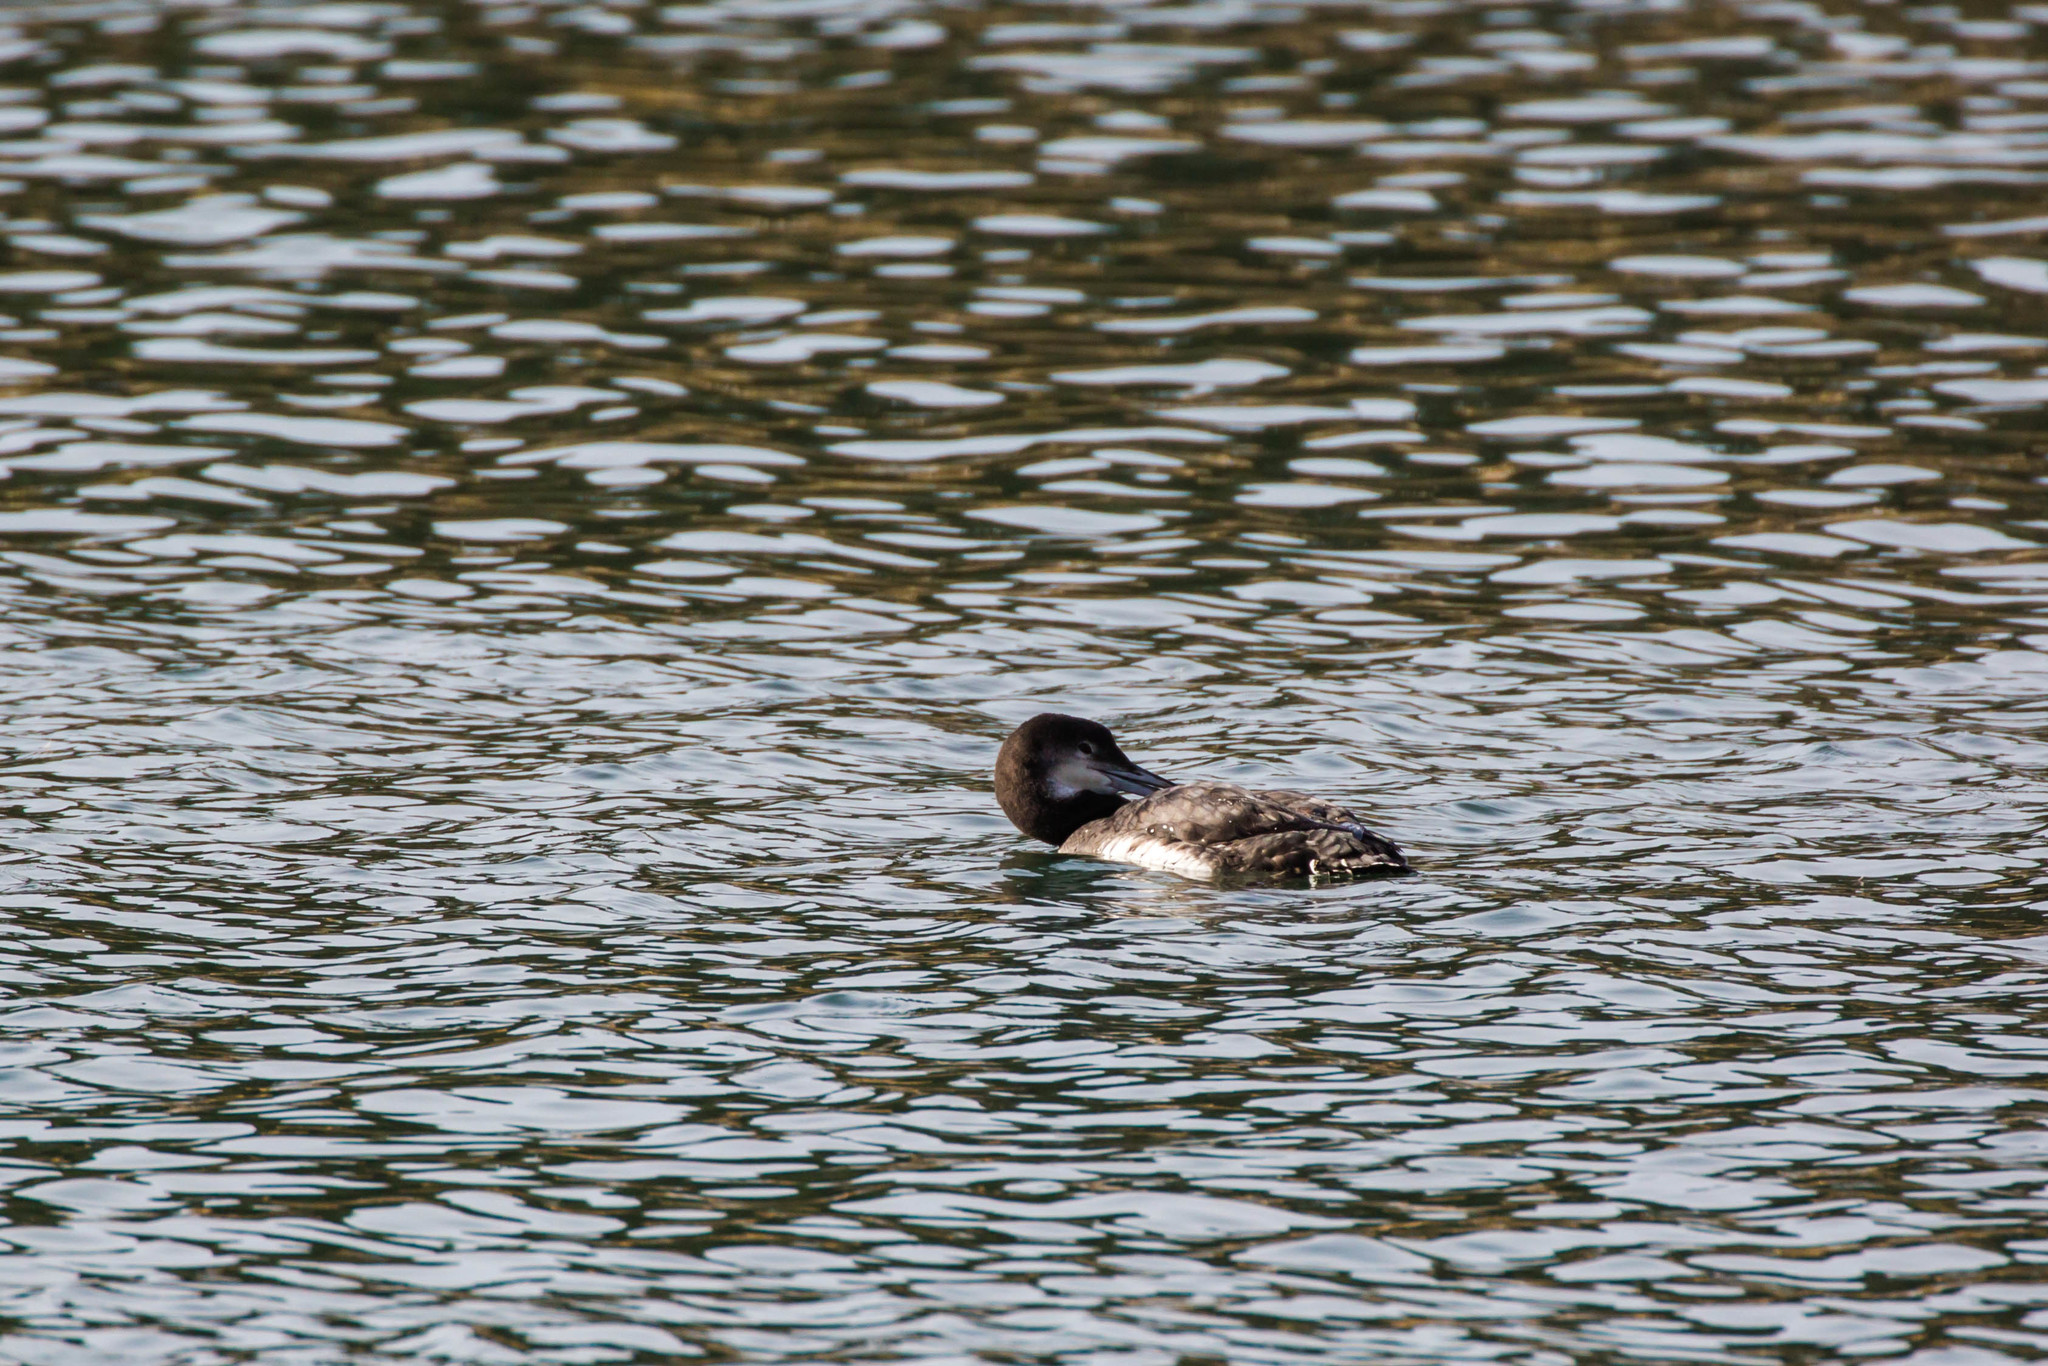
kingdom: Animalia
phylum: Chordata
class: Aves
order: Gaviiformes
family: Gaviidae
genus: Gavia
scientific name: Gavia immer
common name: Common loon
